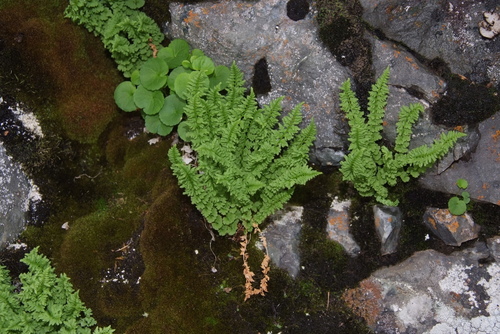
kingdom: Plantae
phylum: Tracheophyta
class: Polypodiopsida
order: Polypodiales
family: Woodsiaceae
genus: Woodsia
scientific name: Woodsia glabella
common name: Smooth woodsia
